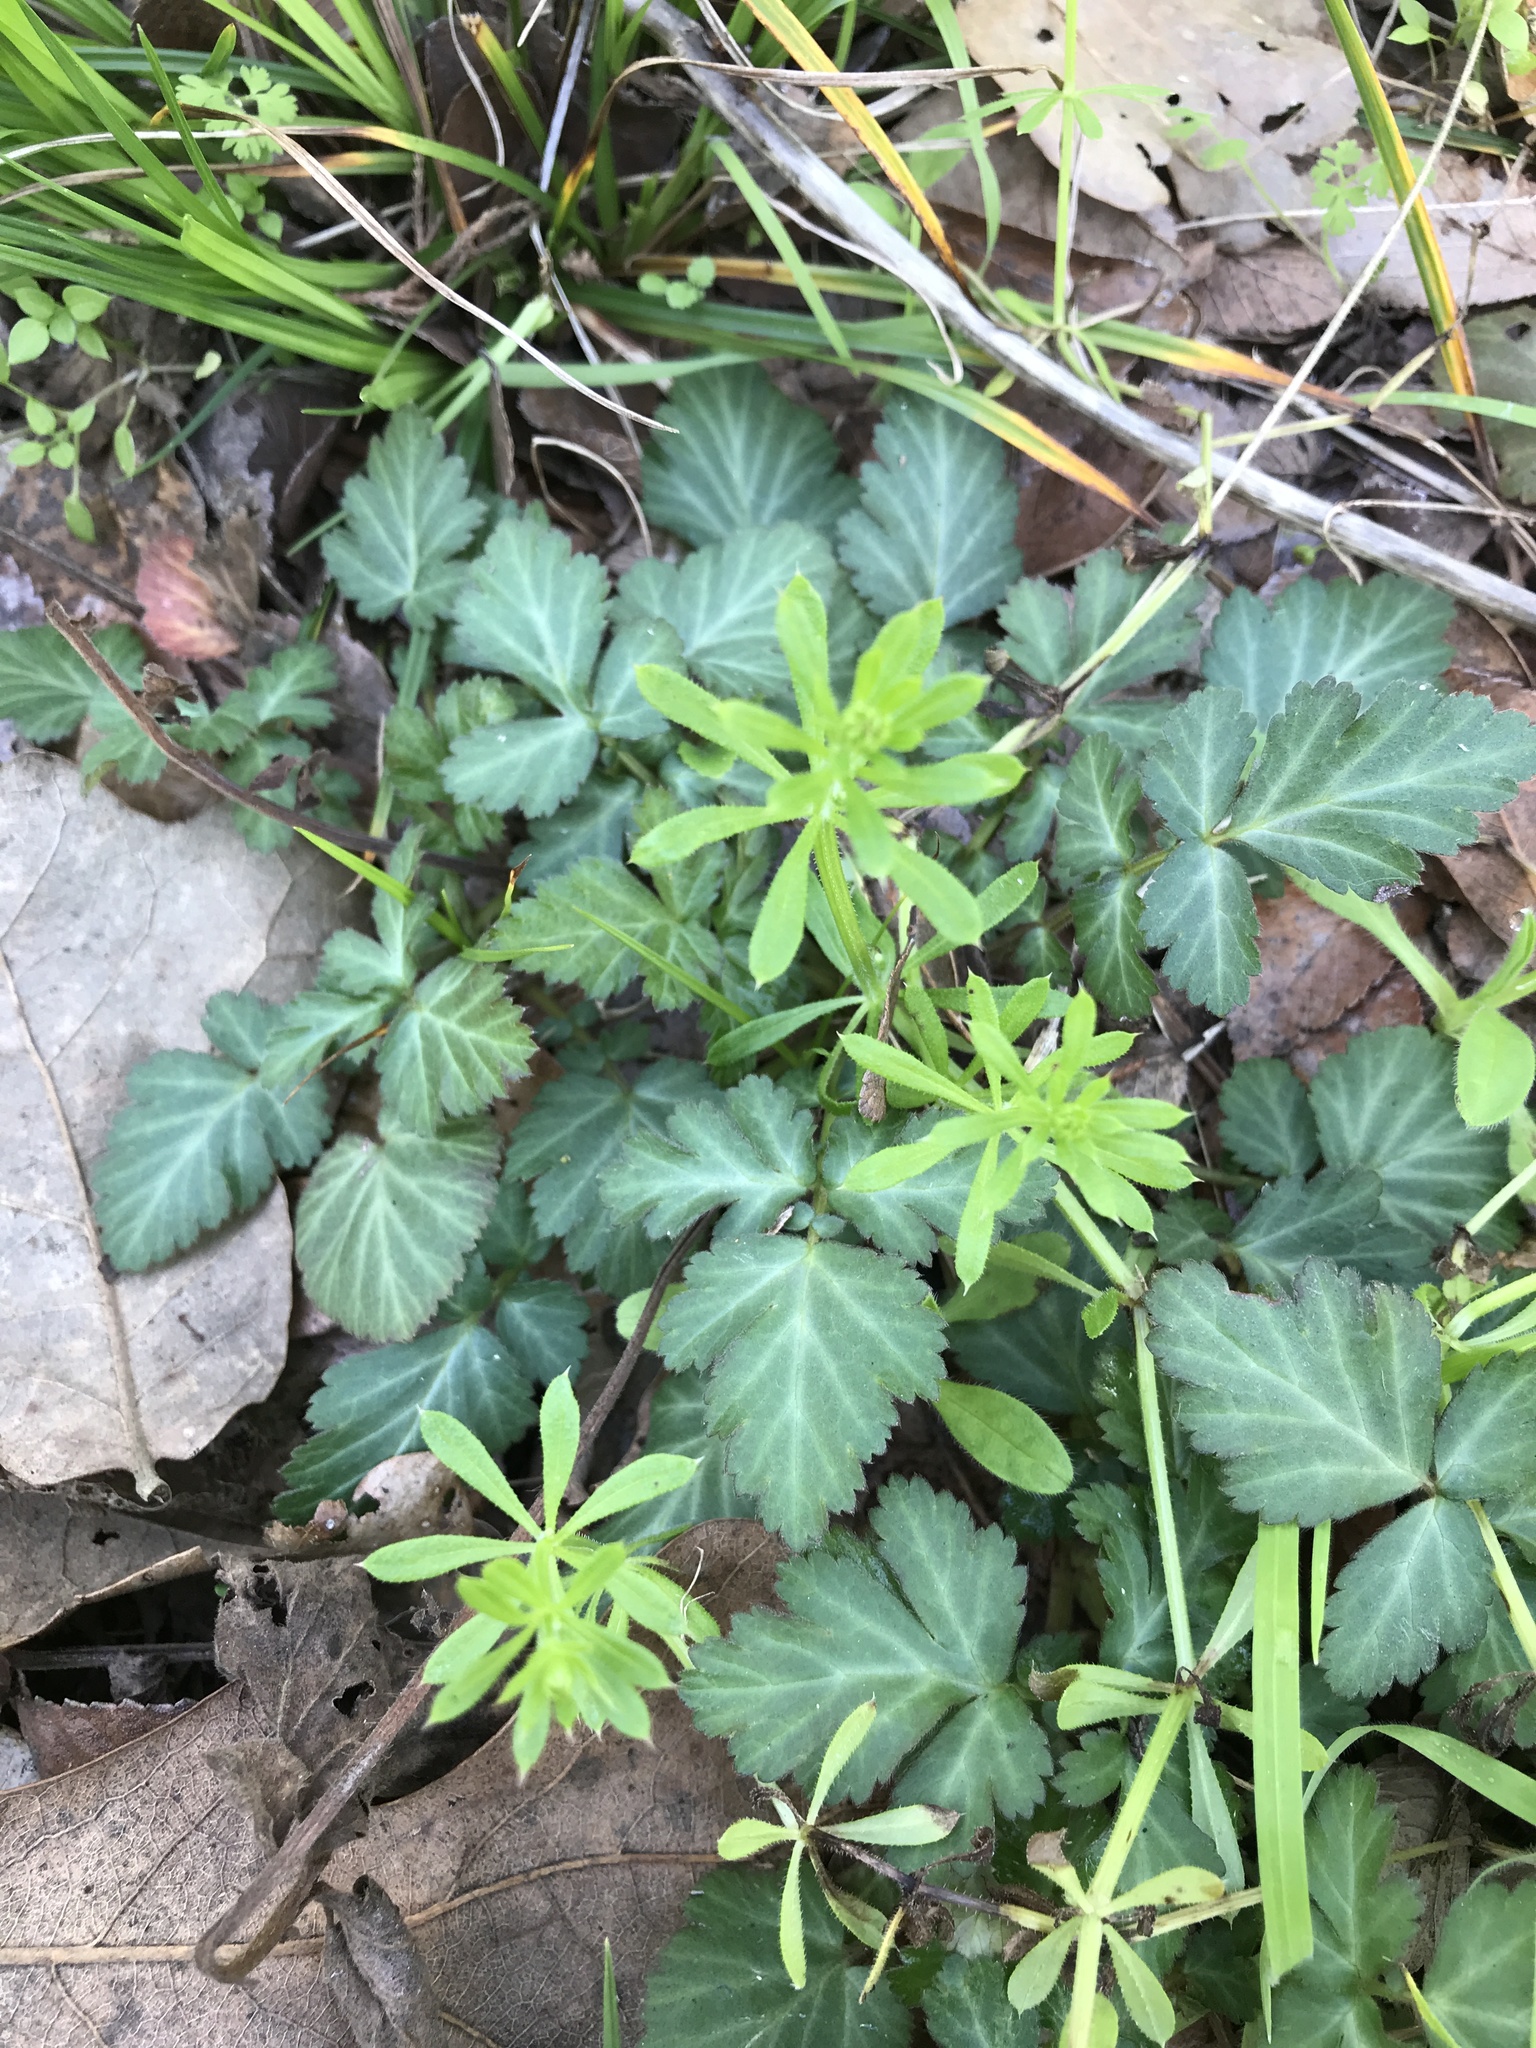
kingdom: Plantae
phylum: Tracheophyta
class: Magnoliopsida
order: Rosales
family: Rosaceae
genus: Geum
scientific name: Geum canadense
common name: White avens
